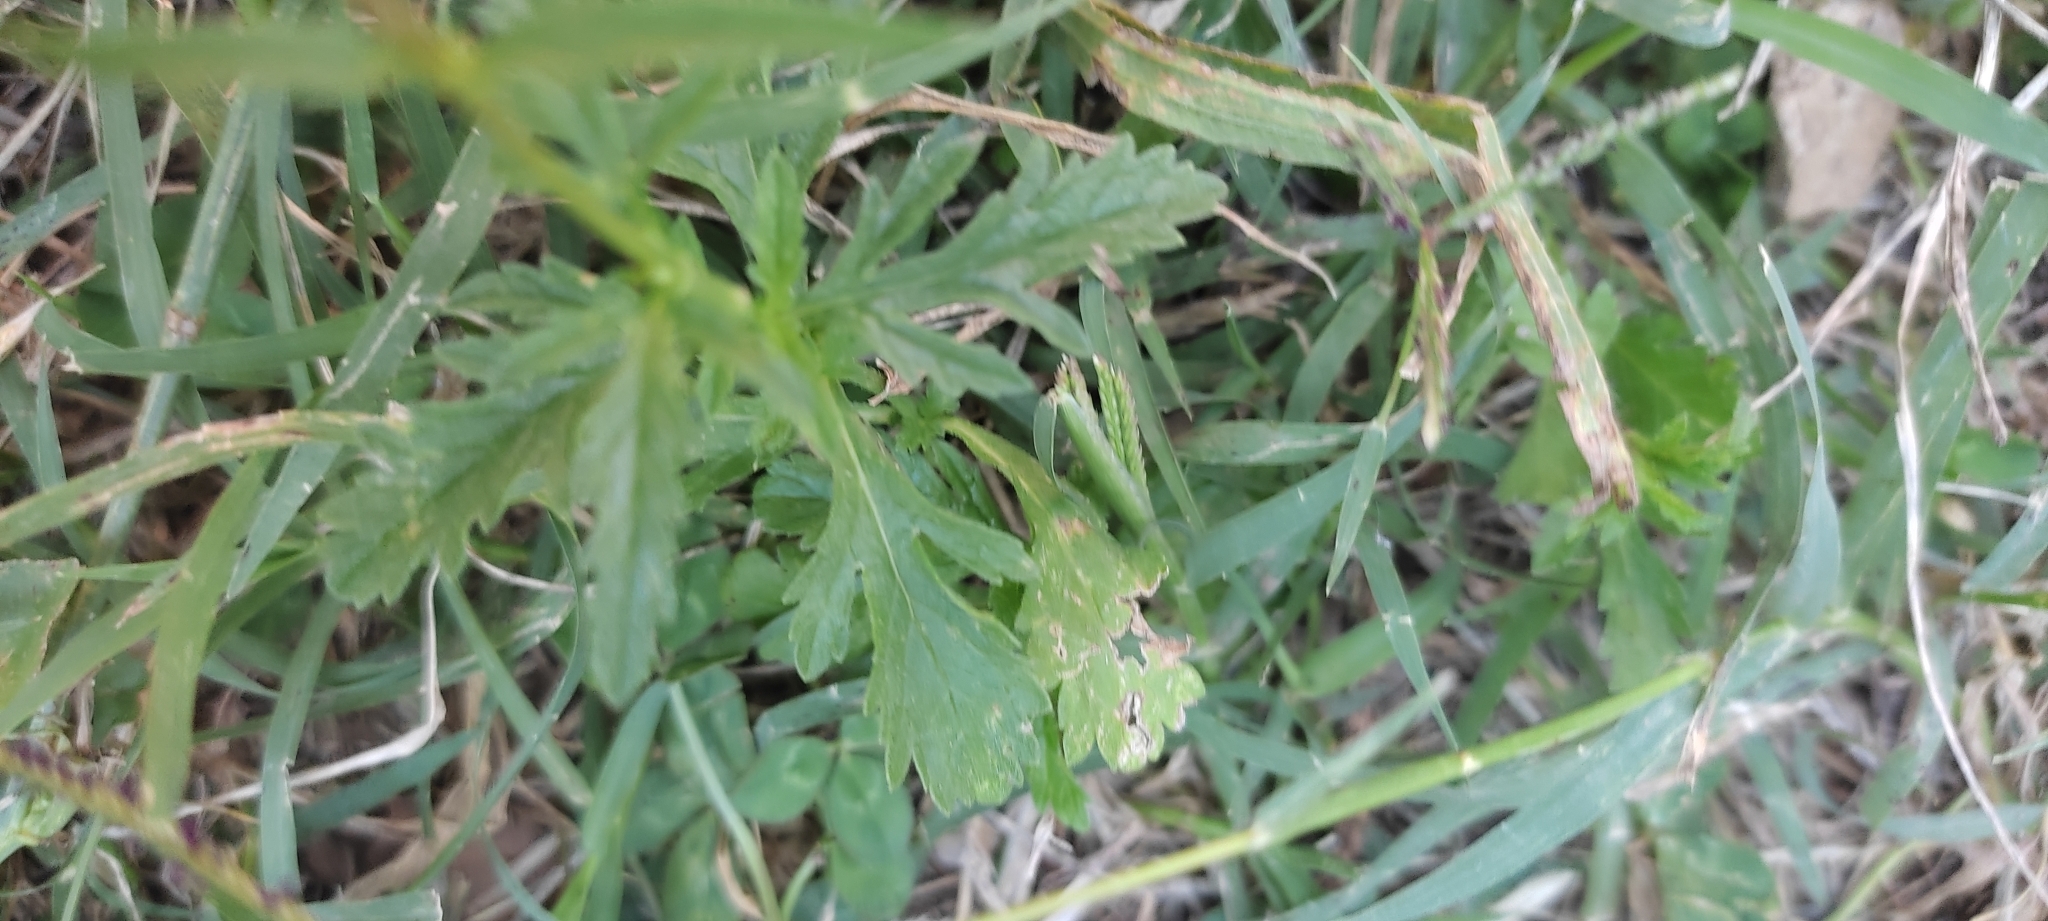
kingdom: Plantae
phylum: Tracheophyta
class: Magnoliopsida
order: Lamiales
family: Verbenaceae
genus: Verbena
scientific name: Verbena officinalis
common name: Vervain
